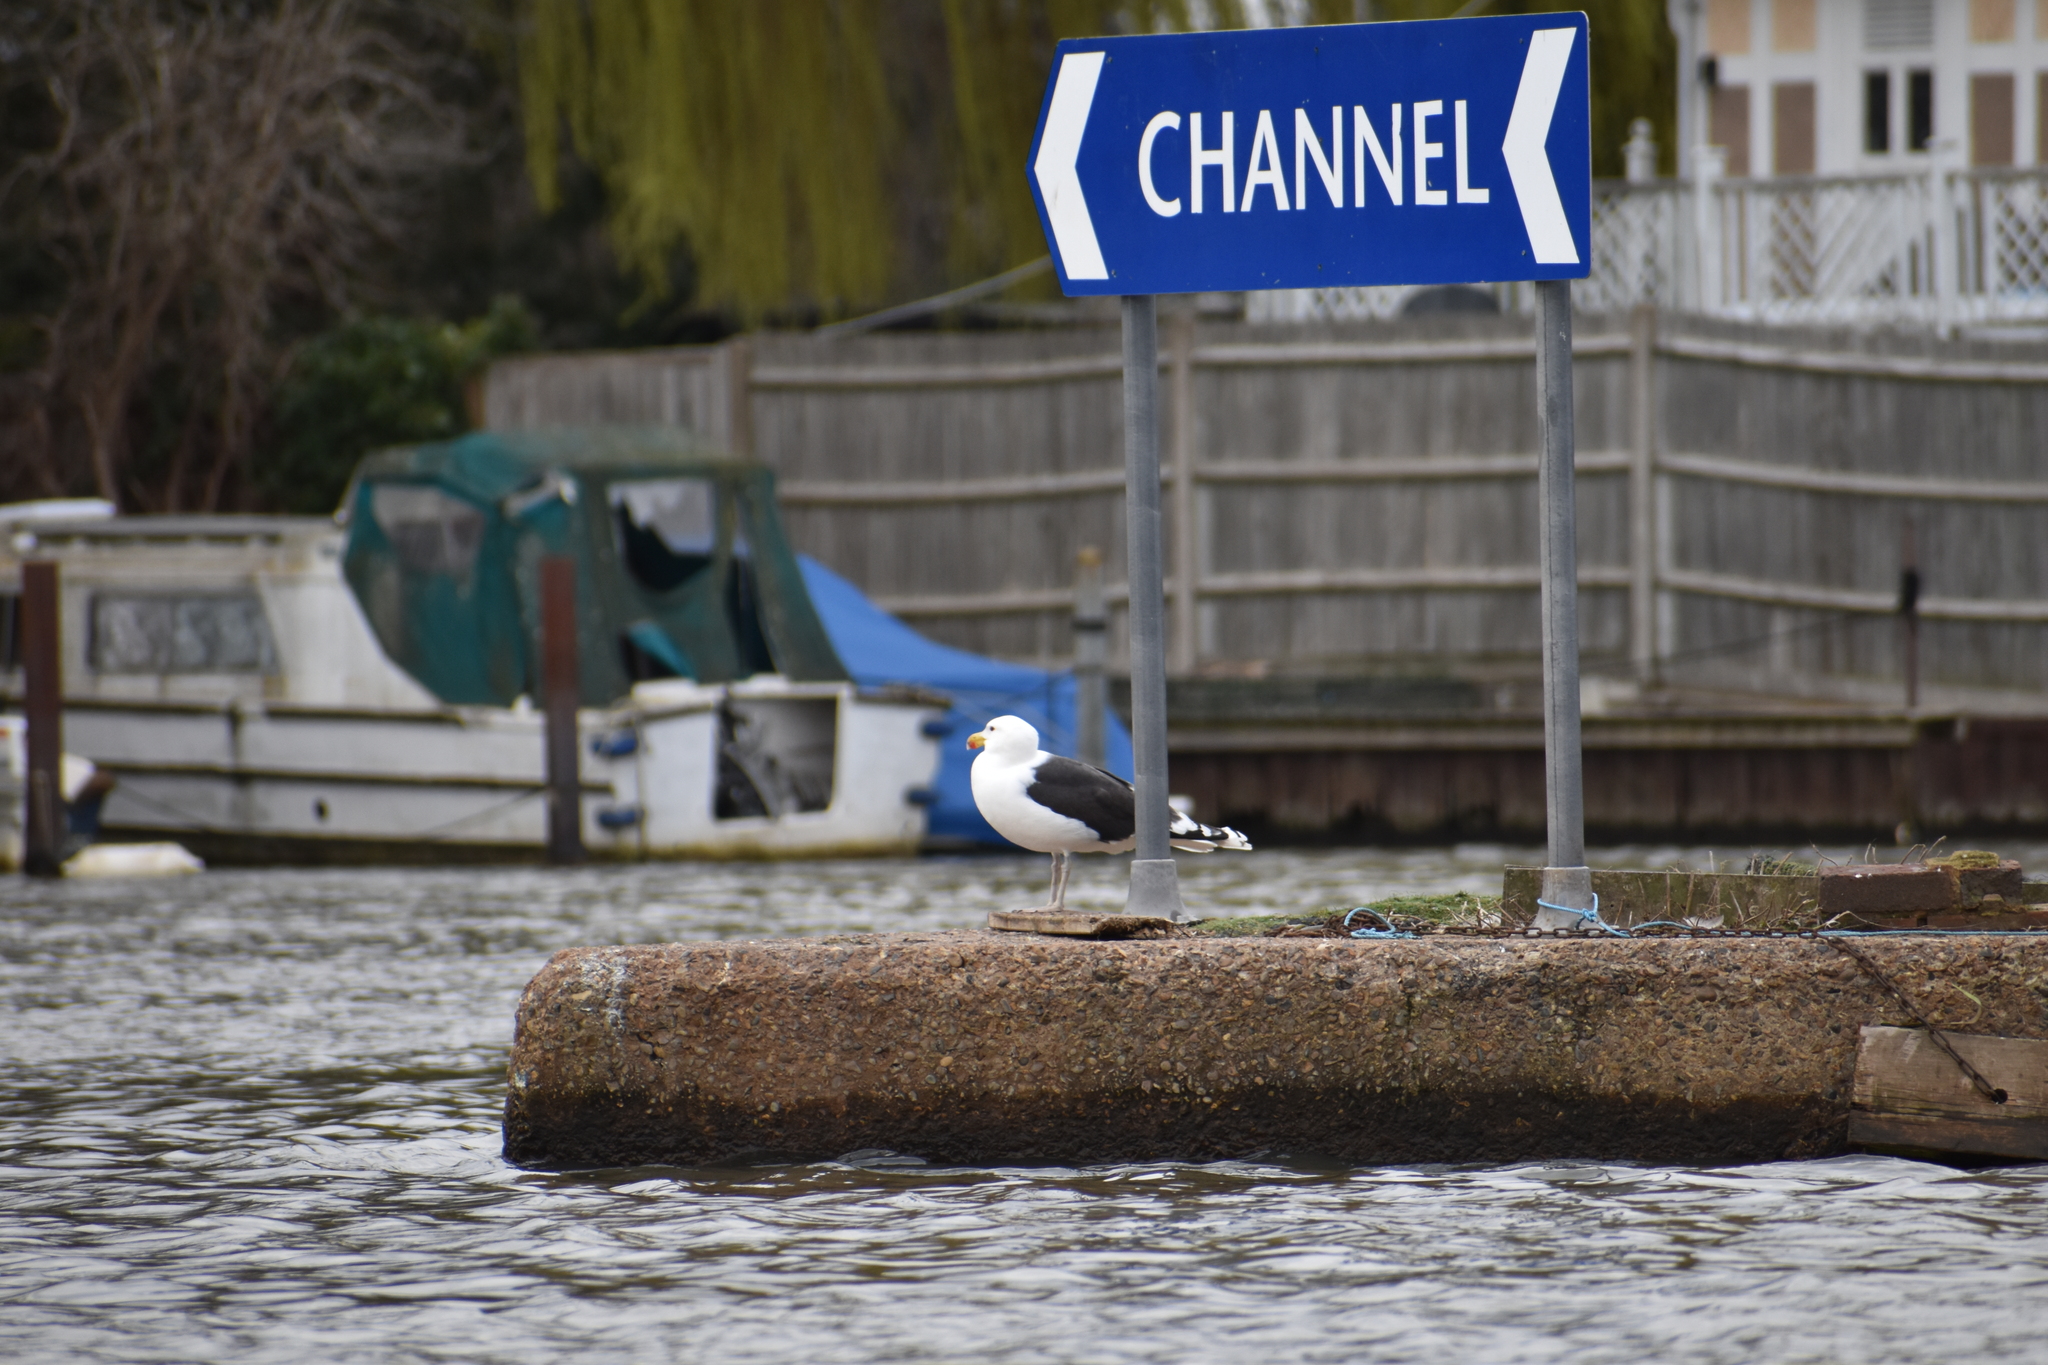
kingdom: Animalia
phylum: Chordata
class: Aves
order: Charadriiformes
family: Laridae
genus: Larus
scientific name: Larus marinus
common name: Great black-backed gull
